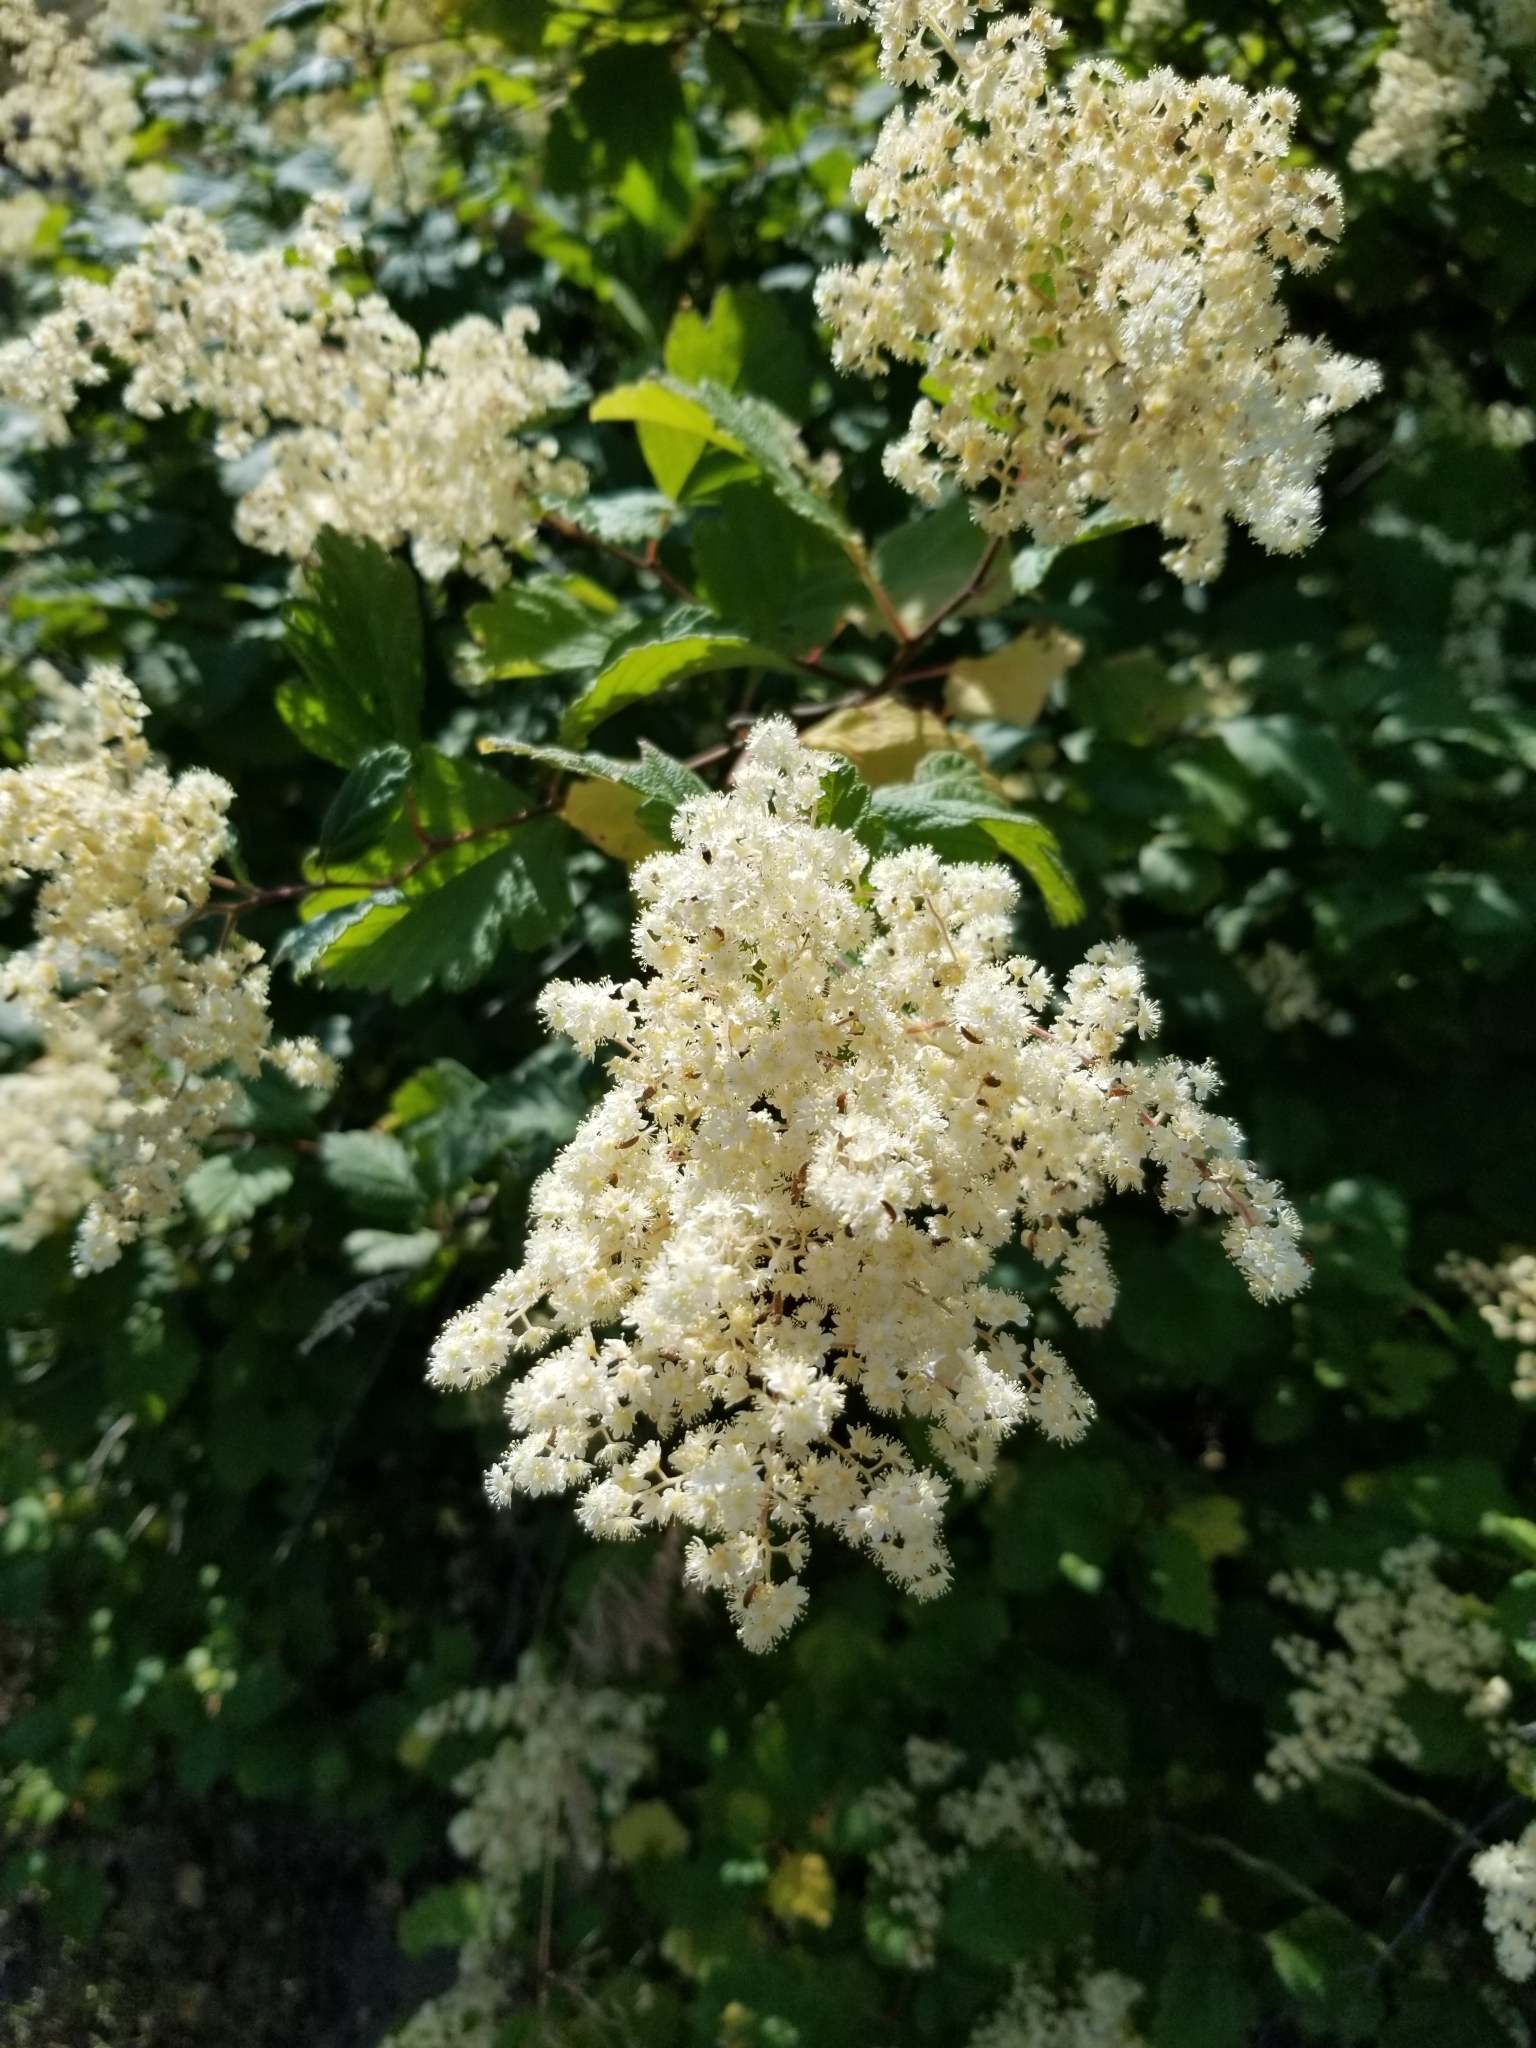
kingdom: Plantae
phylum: Tracheophyta
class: Magnoliopsida
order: Rosales
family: Rosaceae
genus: Holodiscus
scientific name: Holodiscus discolor
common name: Oceanspray
